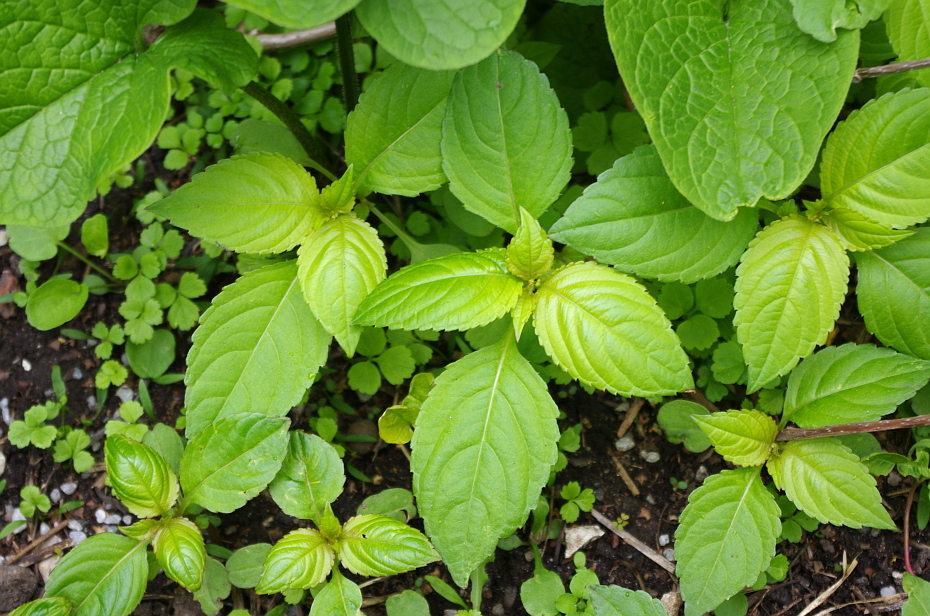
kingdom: Plantae
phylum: Tracheophyta
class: Magnoliopsida
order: Ericales
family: Balsaminaceae
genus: Impatiens
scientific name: Impatiens parviflora
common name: Small balsam
